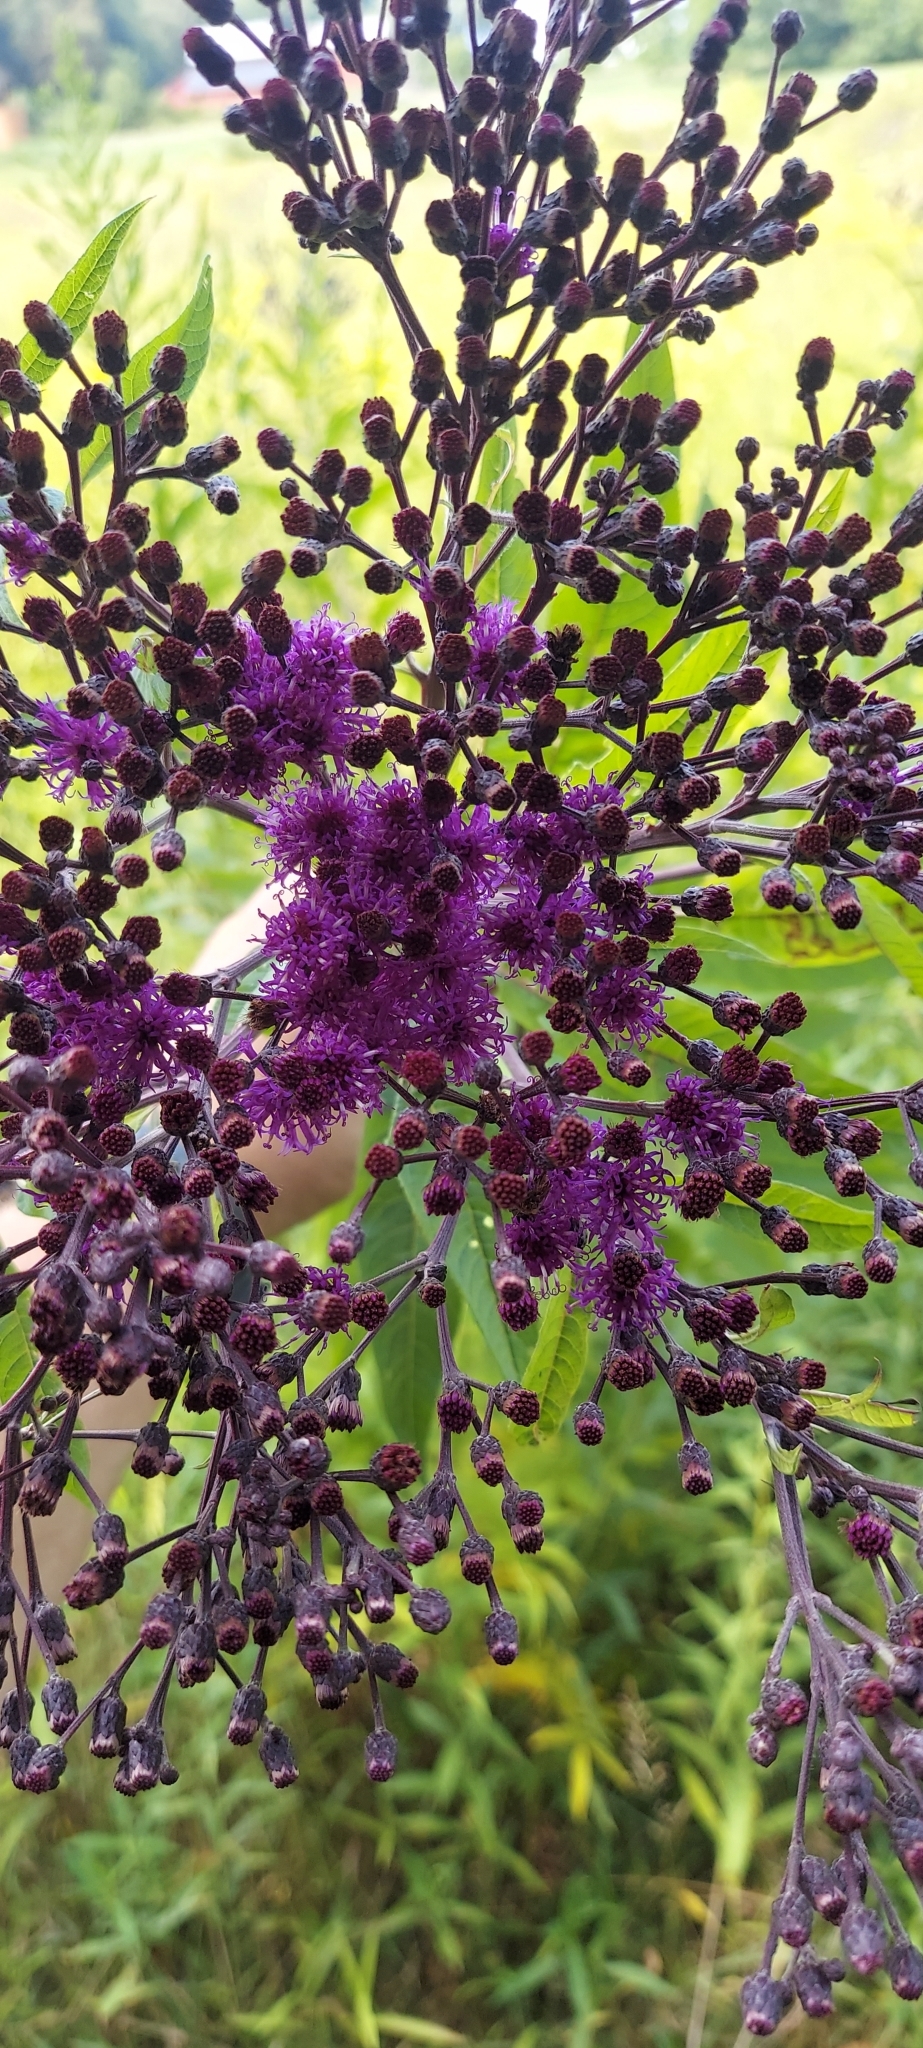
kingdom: Plantae
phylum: Tracheophyta
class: Magnoliopsida
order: Asterales
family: Asteraceae
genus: Vernonia
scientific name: Vernonia gigantea
